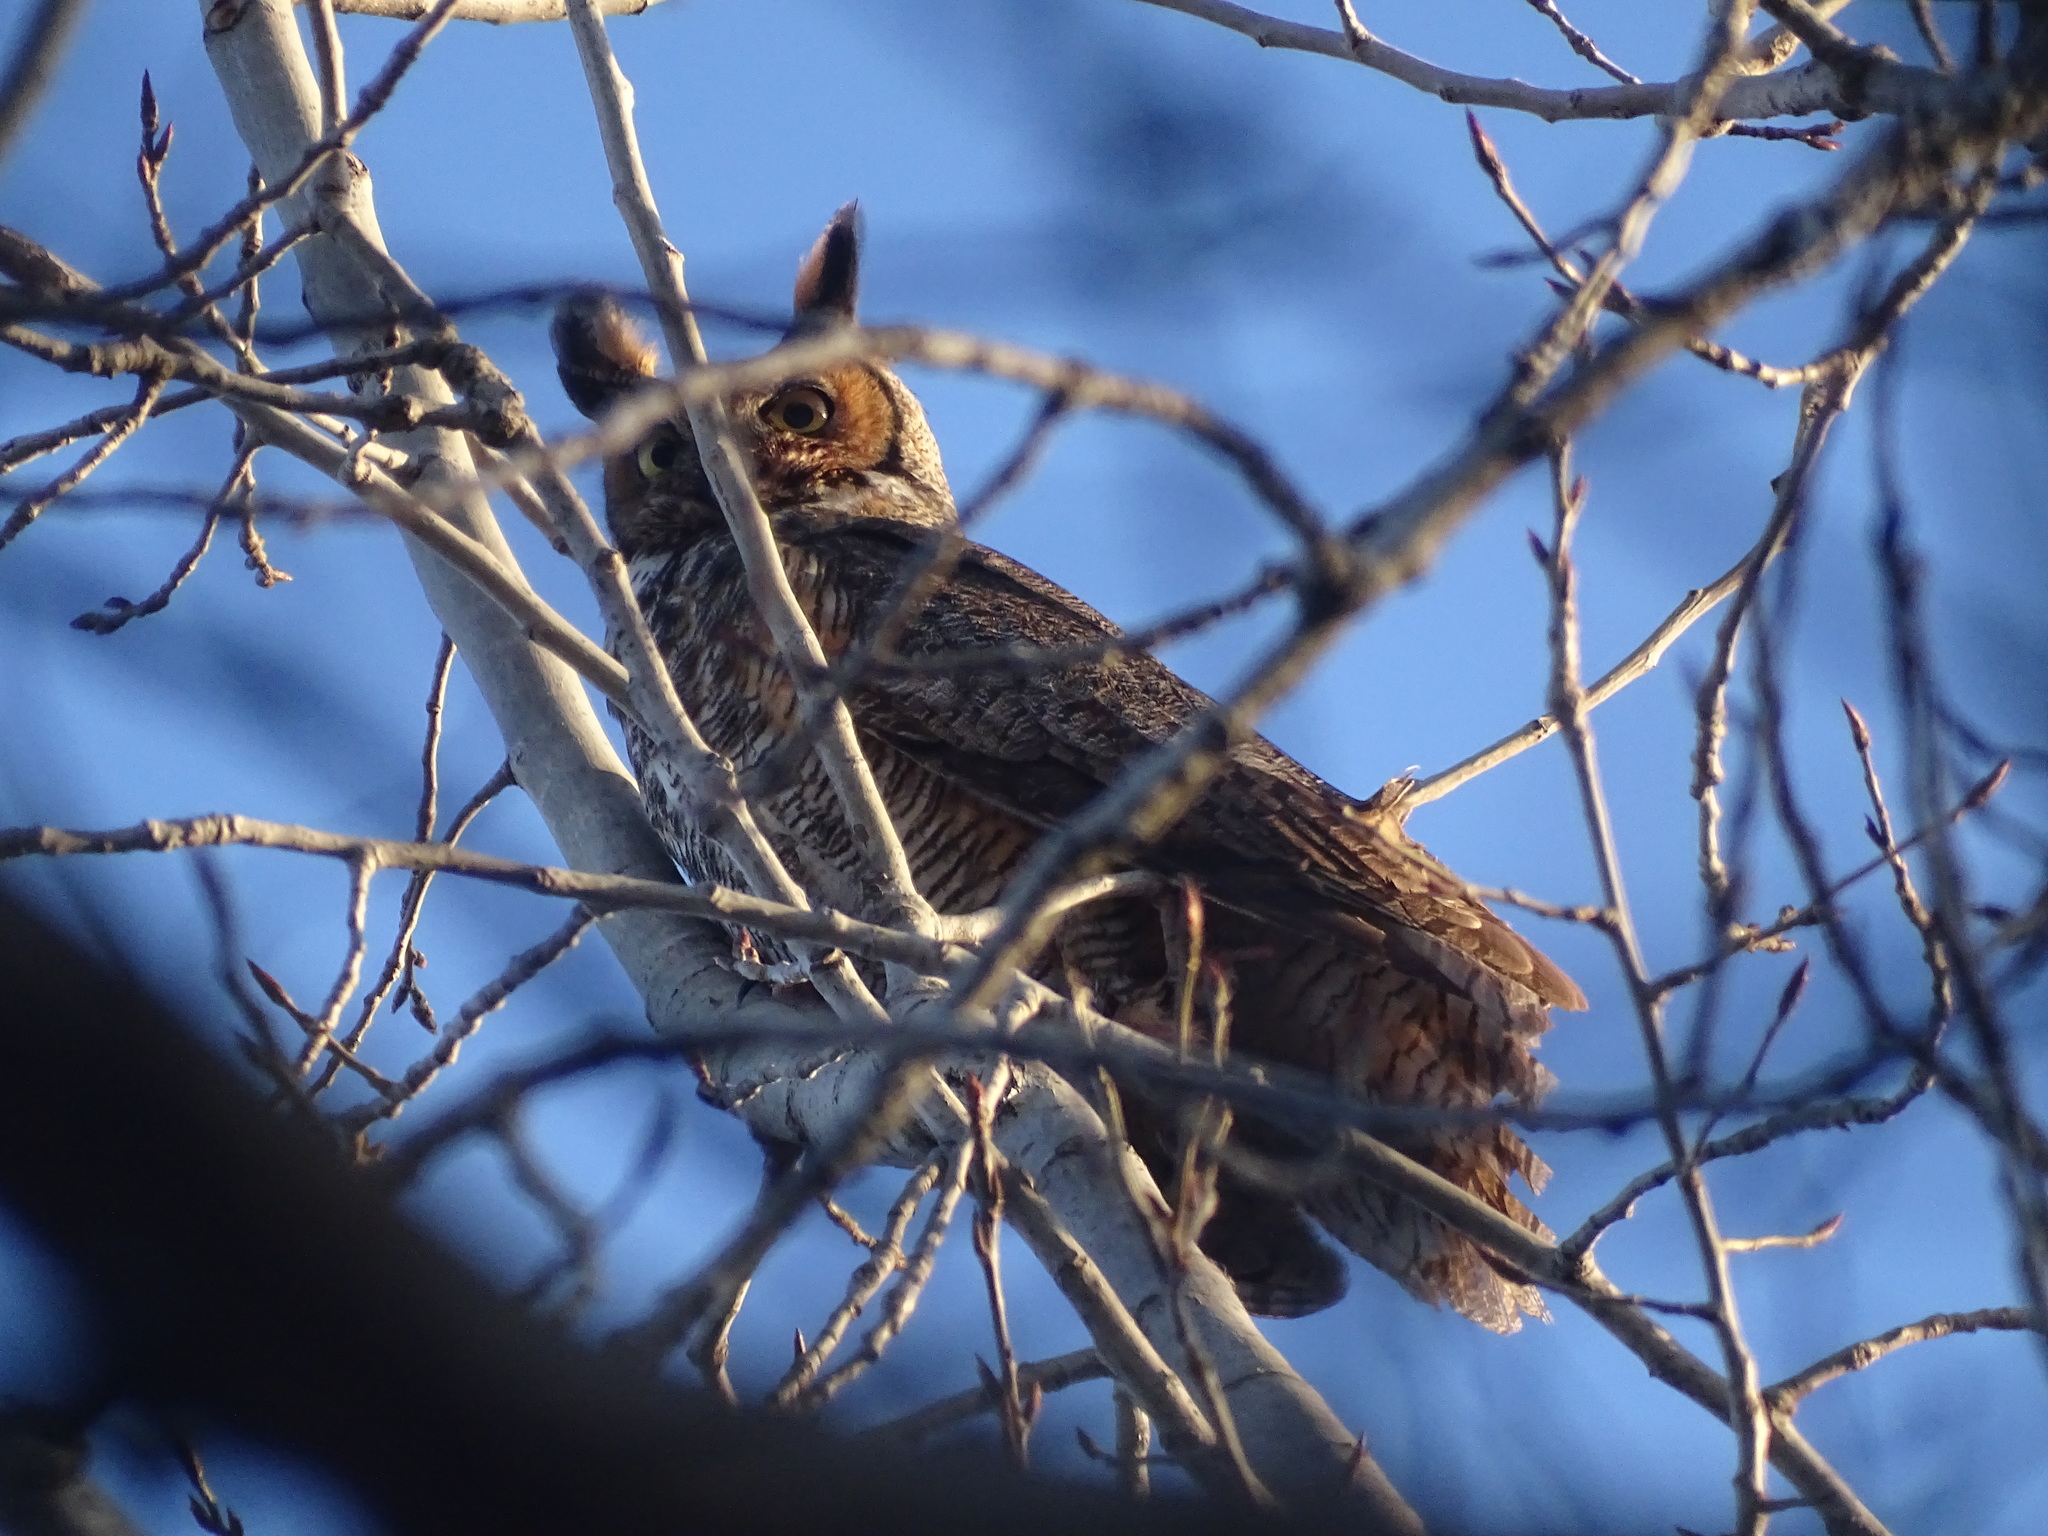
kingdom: Animalia
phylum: Chordata
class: Aves
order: Strigiformes
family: Strigidae
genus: Bubo
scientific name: Bubo virginianus
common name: Great horned owl
